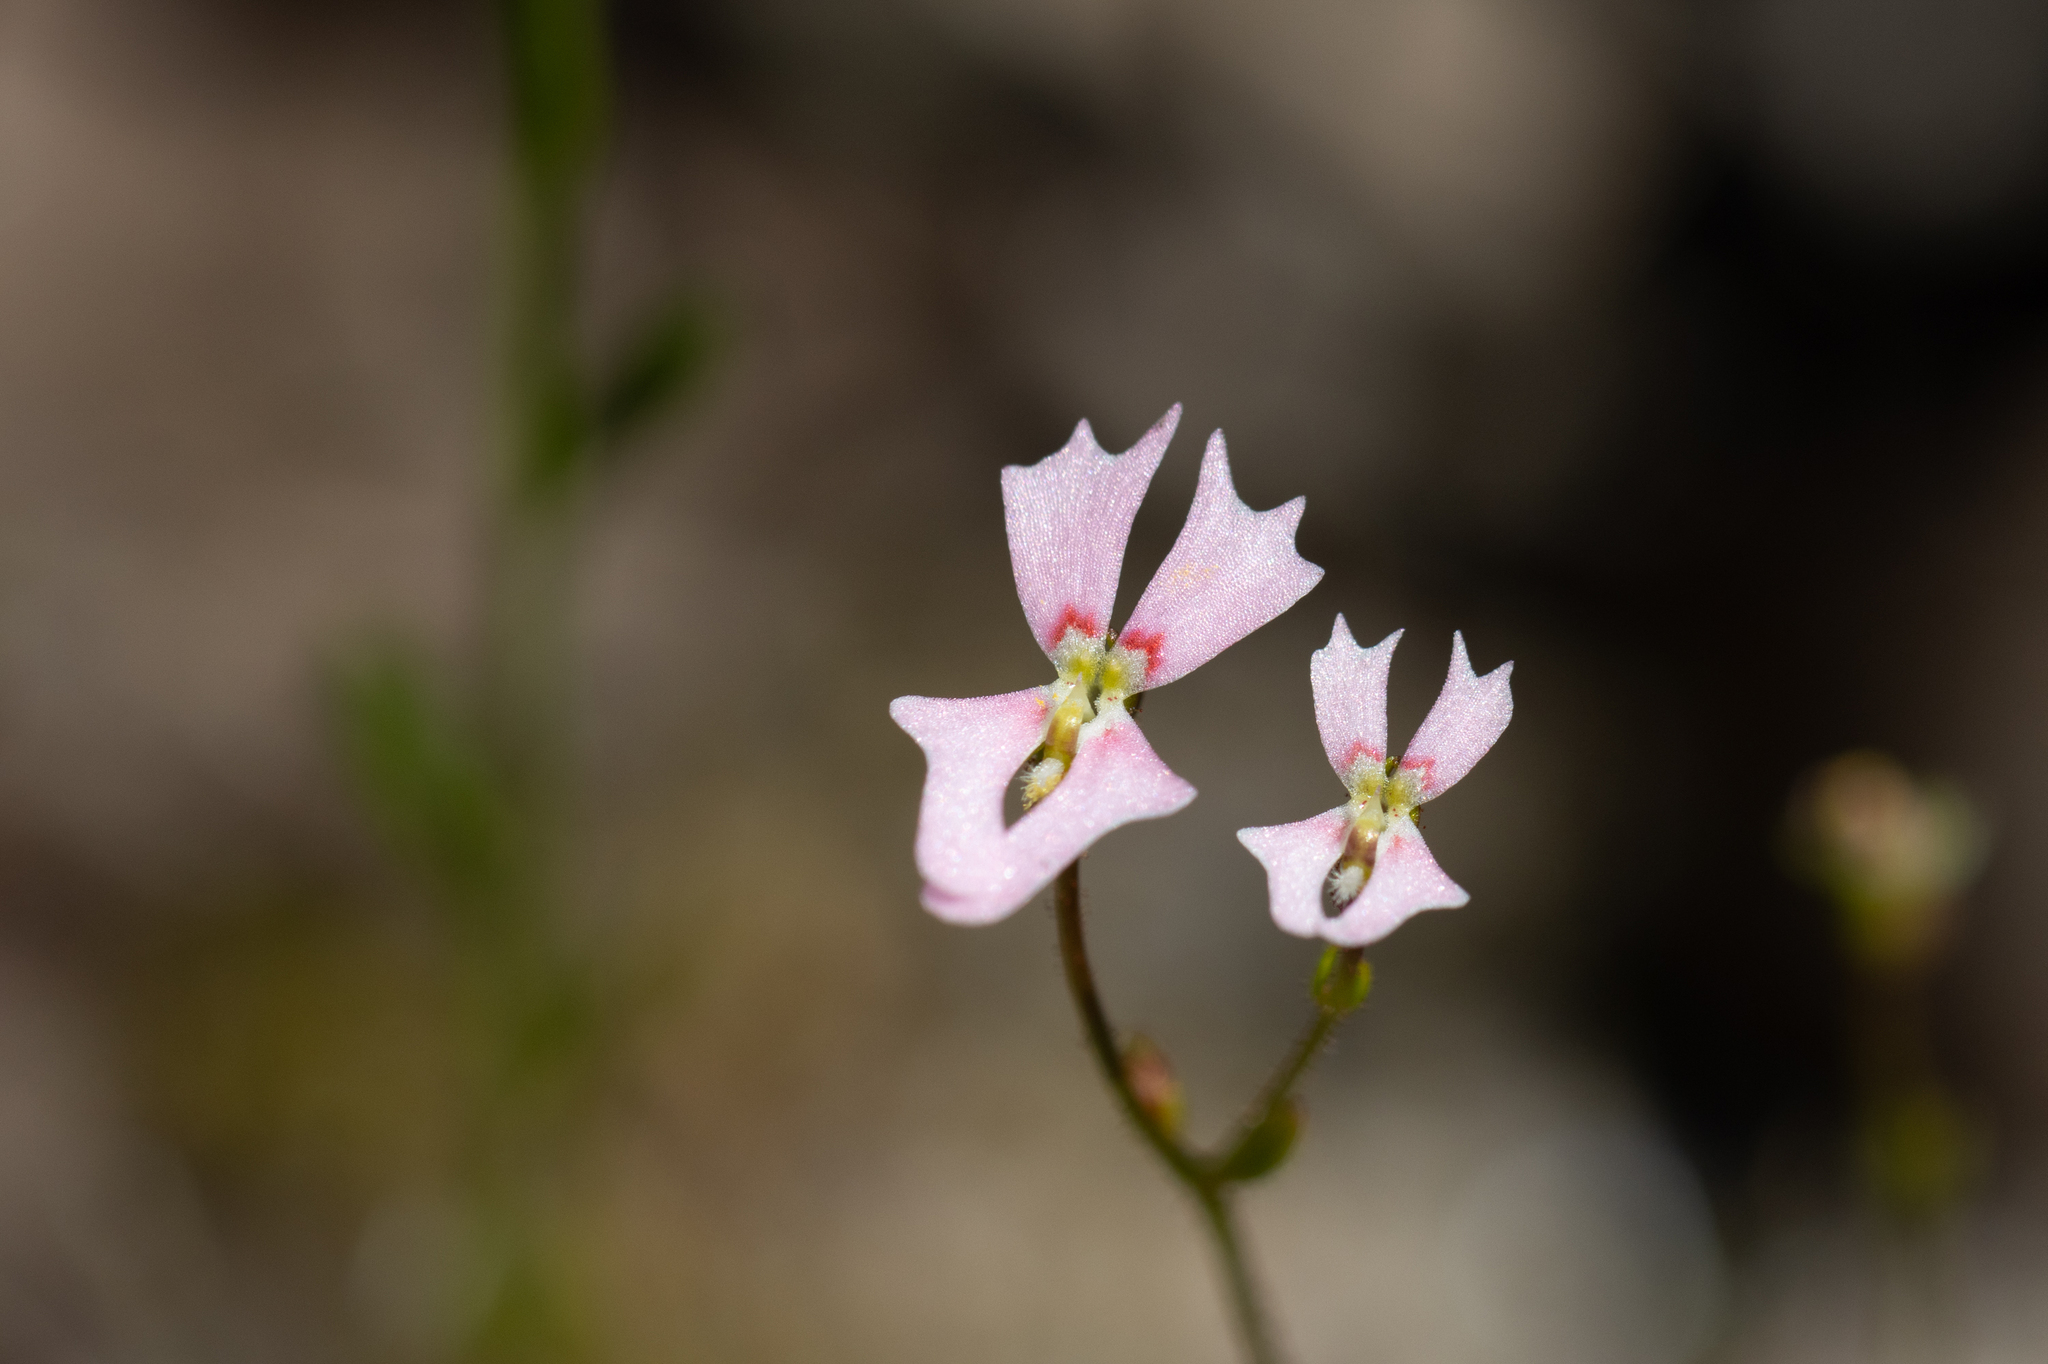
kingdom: Plantae
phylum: Tracheophyta
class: Magnoliopsida
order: Asterales
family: Stylidiaceae
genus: Stylidium
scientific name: Stylidium calcaratum
